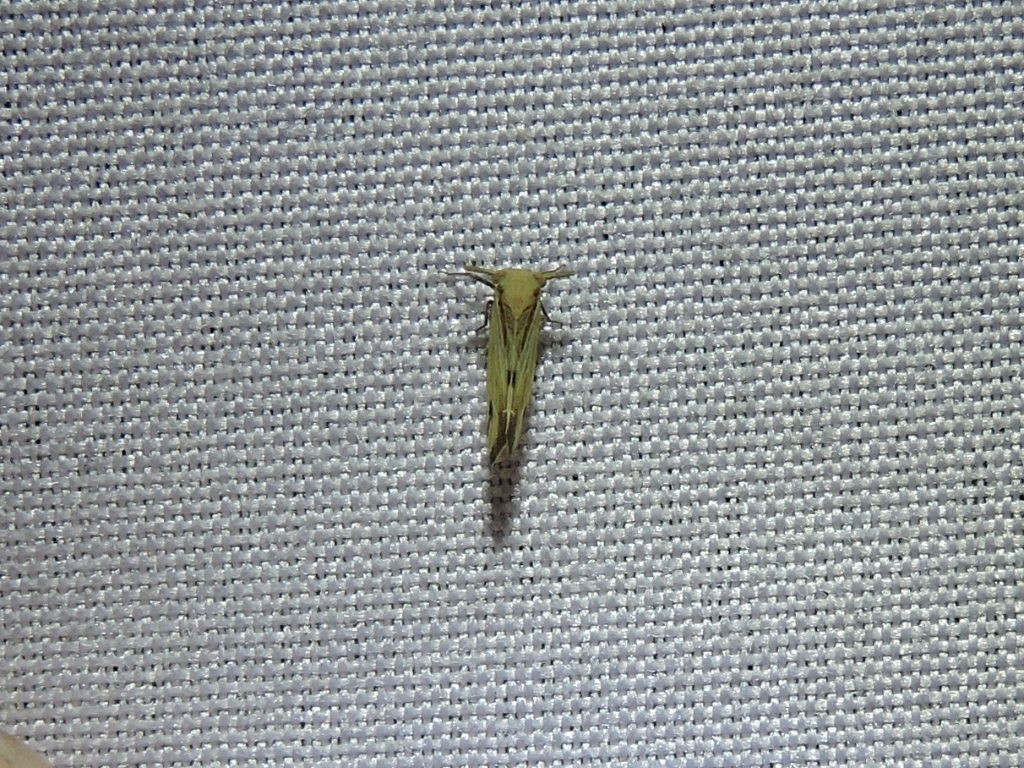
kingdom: Animalia
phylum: Arthropoda
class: Insecta
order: Hemiptera
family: Delphacidae
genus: Bostaera
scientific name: Bostaera nasuta
